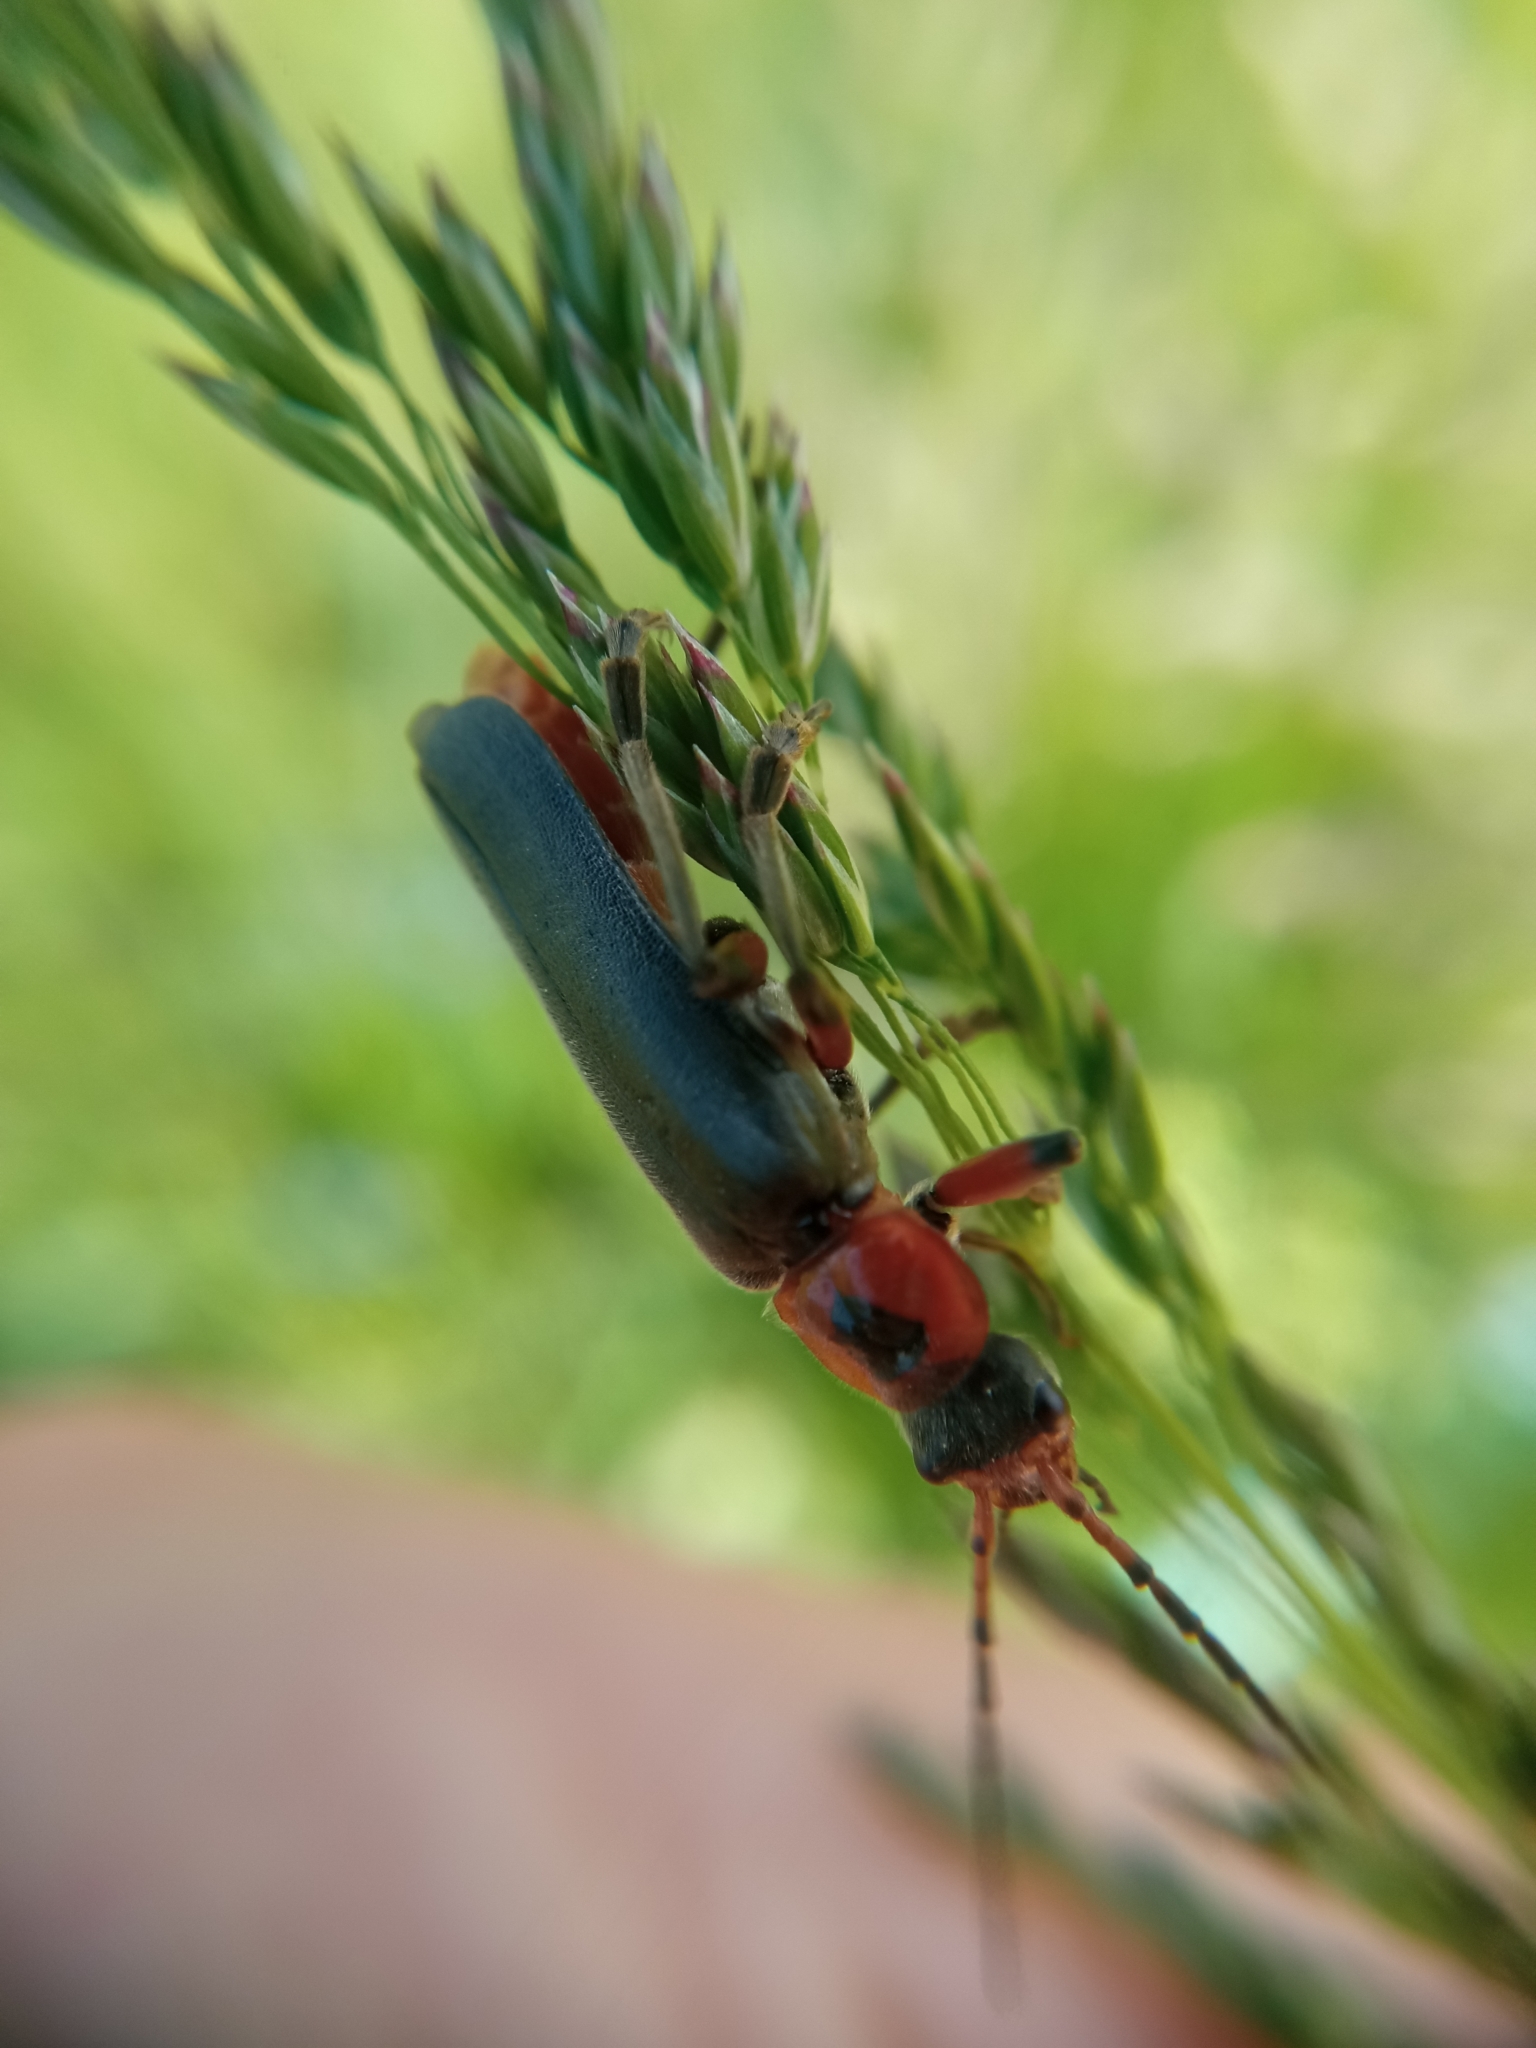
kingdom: Animalia
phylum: Arthropoda
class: Insecta
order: Coleoptera
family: Cantharidae
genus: Cantharis
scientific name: Cantharis rustica
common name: Soldier beetle
